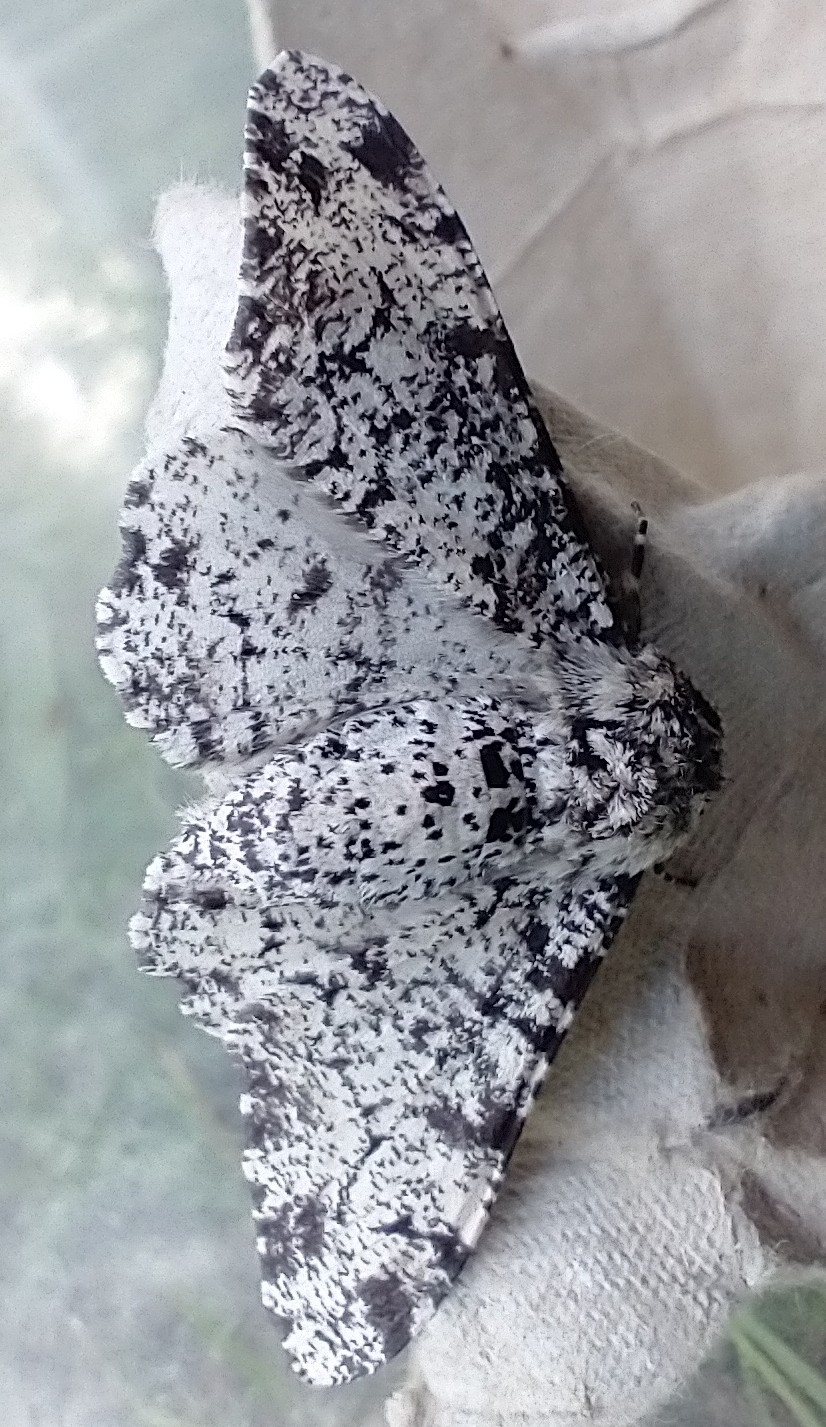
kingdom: Animalia
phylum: Arthropoda
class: Insecta
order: Lepidoptera
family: Geometridae
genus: Biston
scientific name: Biston betularia
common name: Peppered moth
